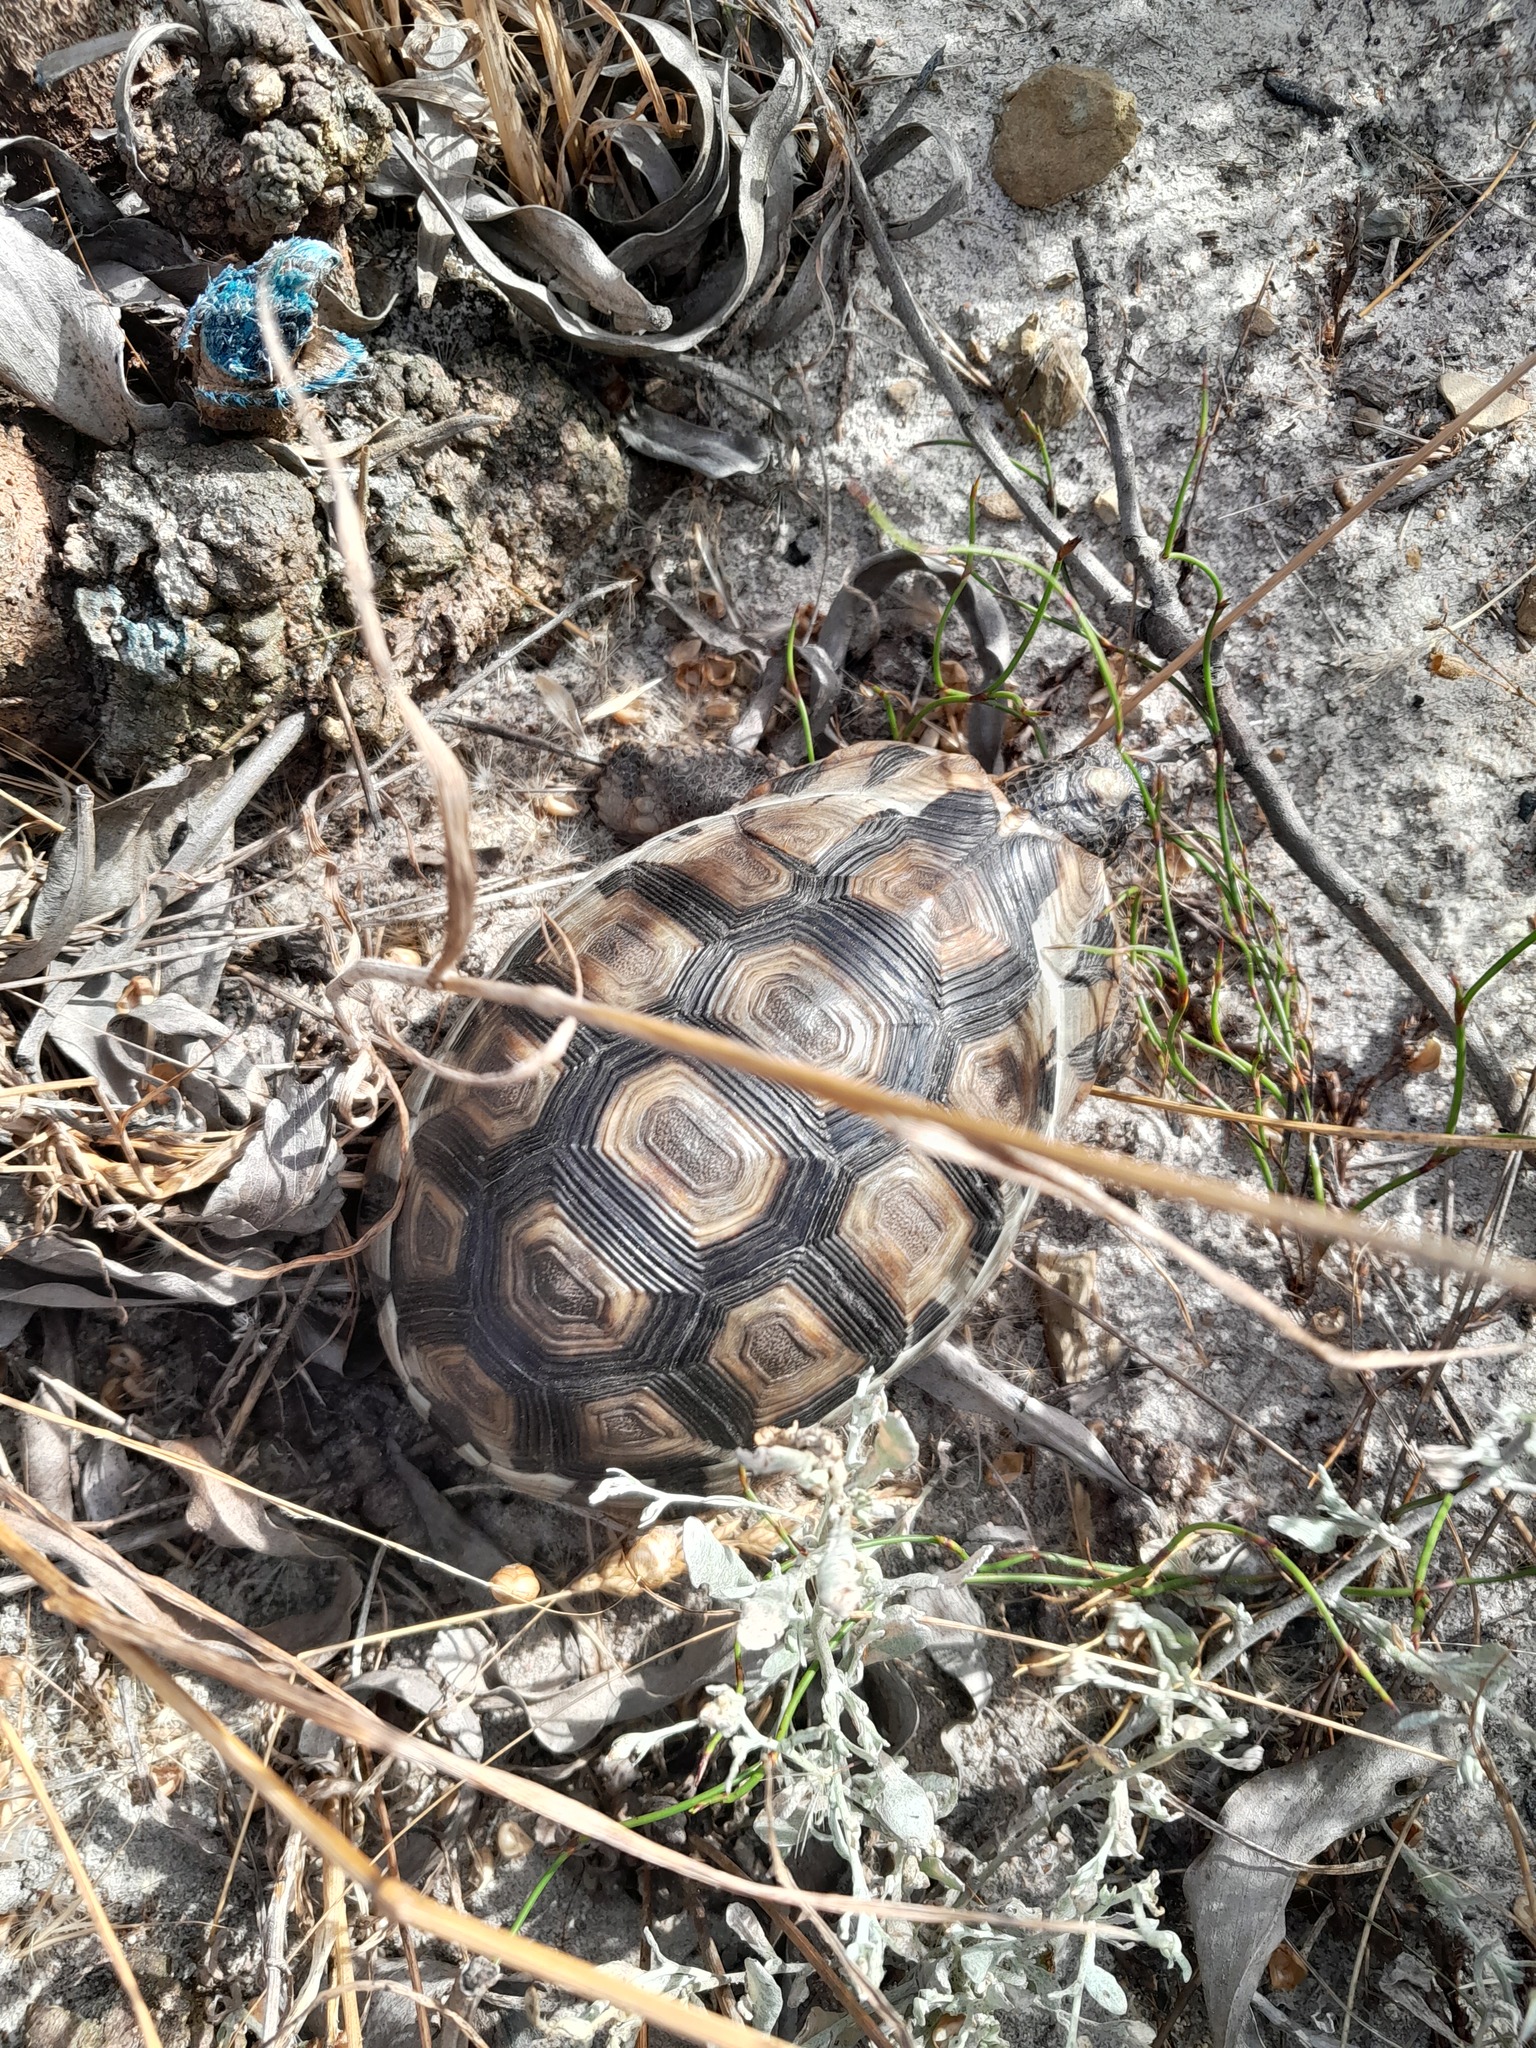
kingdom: Animalia
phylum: Chordata
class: Testudines
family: Testudinidae
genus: Chersina
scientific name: Chersina angulata
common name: South african bowsprit tortoise
